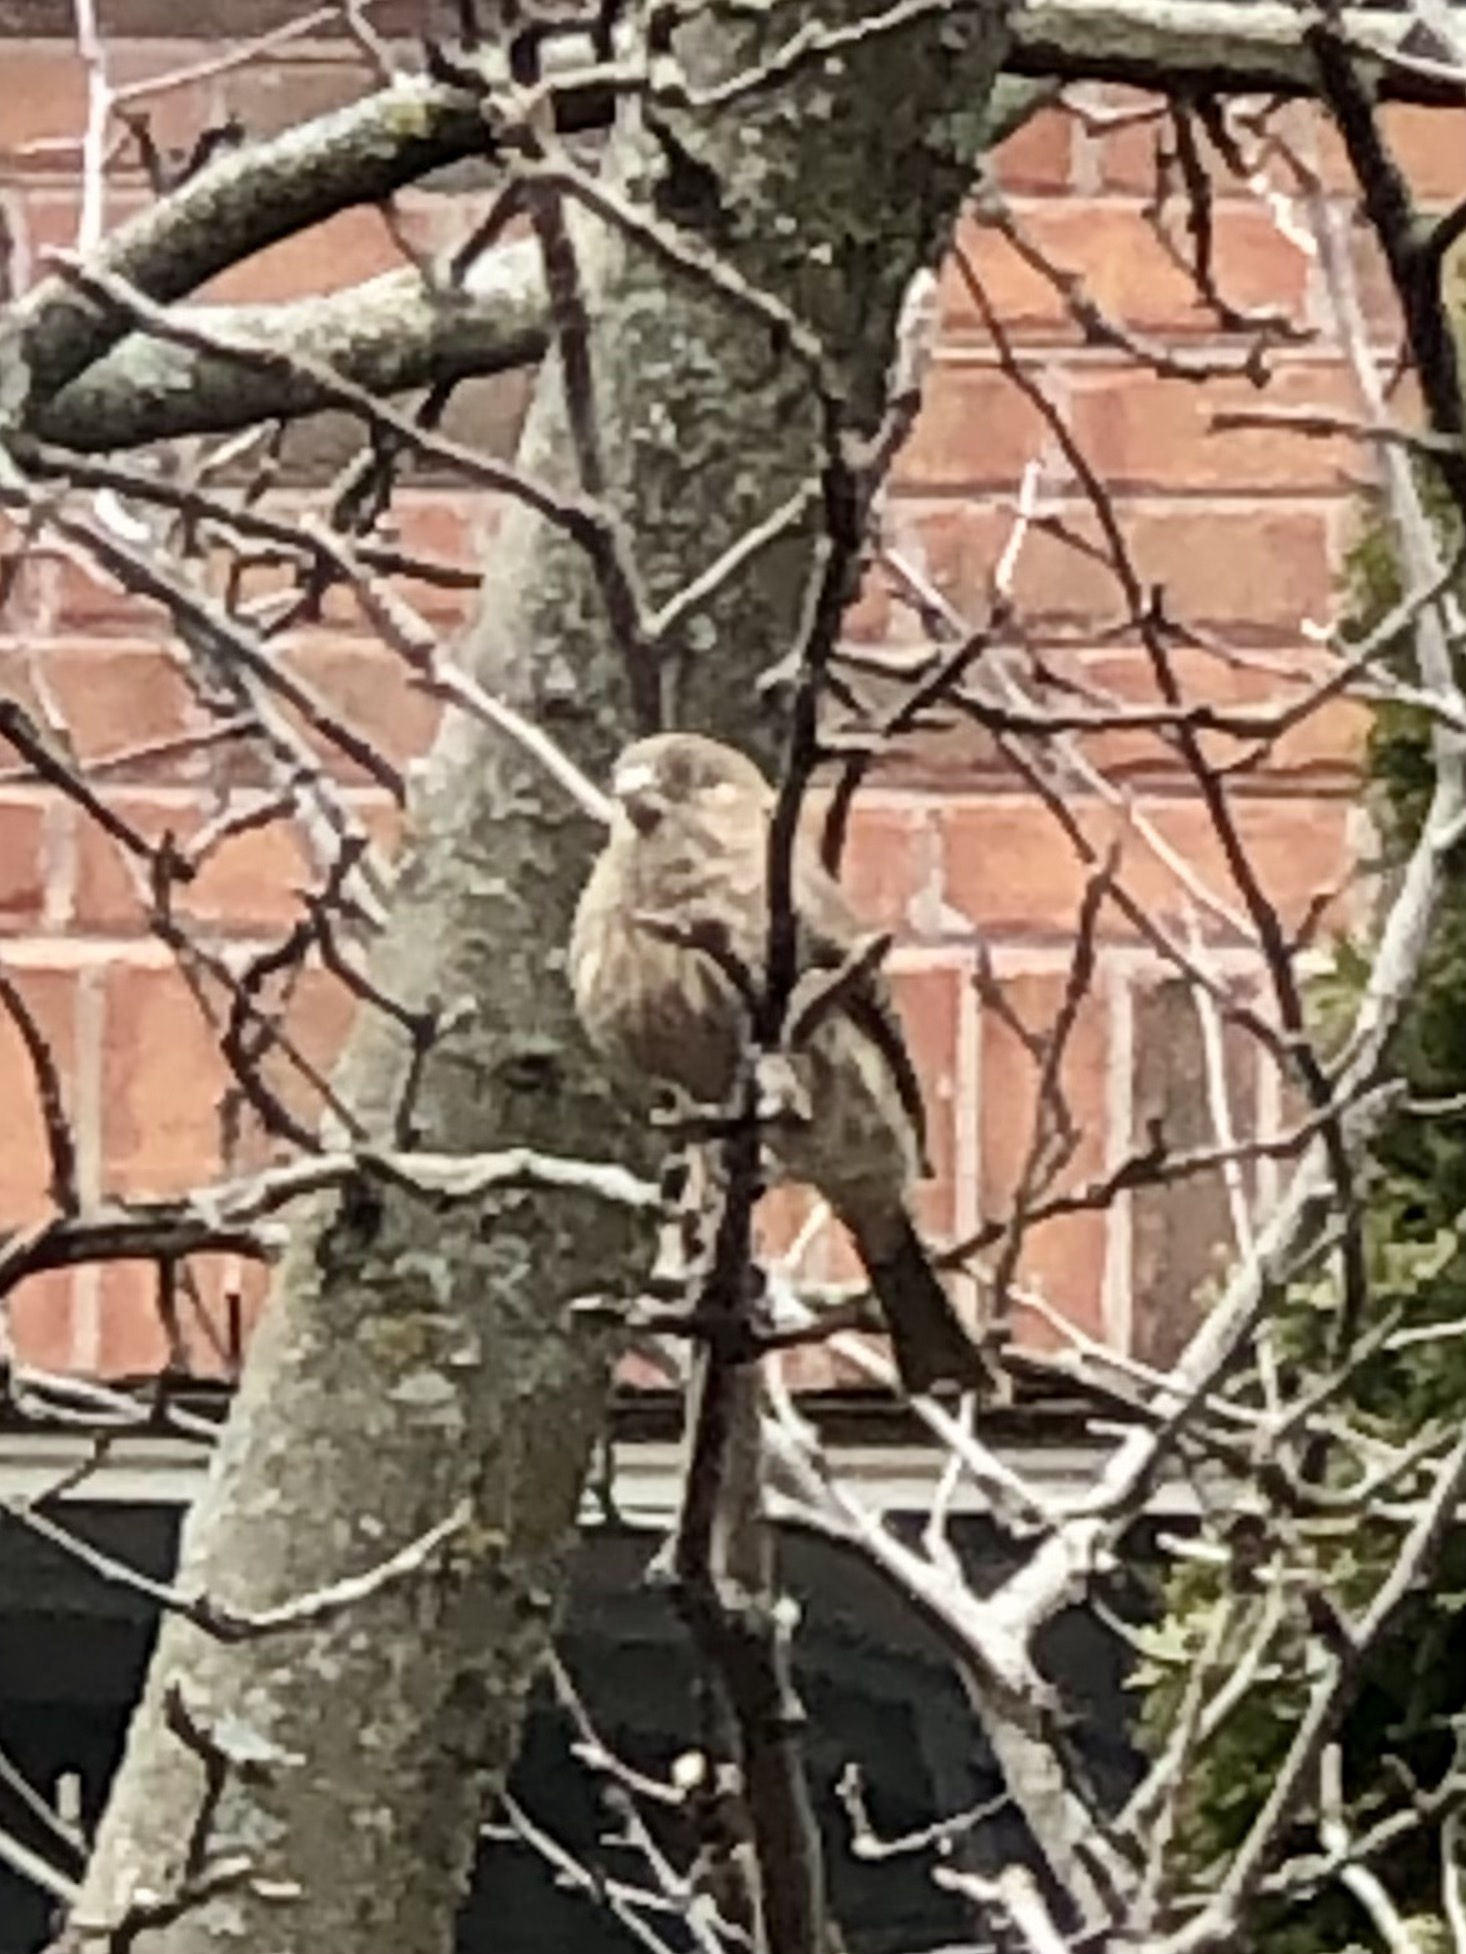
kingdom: Animalia
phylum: Chordata
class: Aves
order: Passeriformes
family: Fringillidae
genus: Haemorhous
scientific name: Haemorhous mexicanus
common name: House finch
